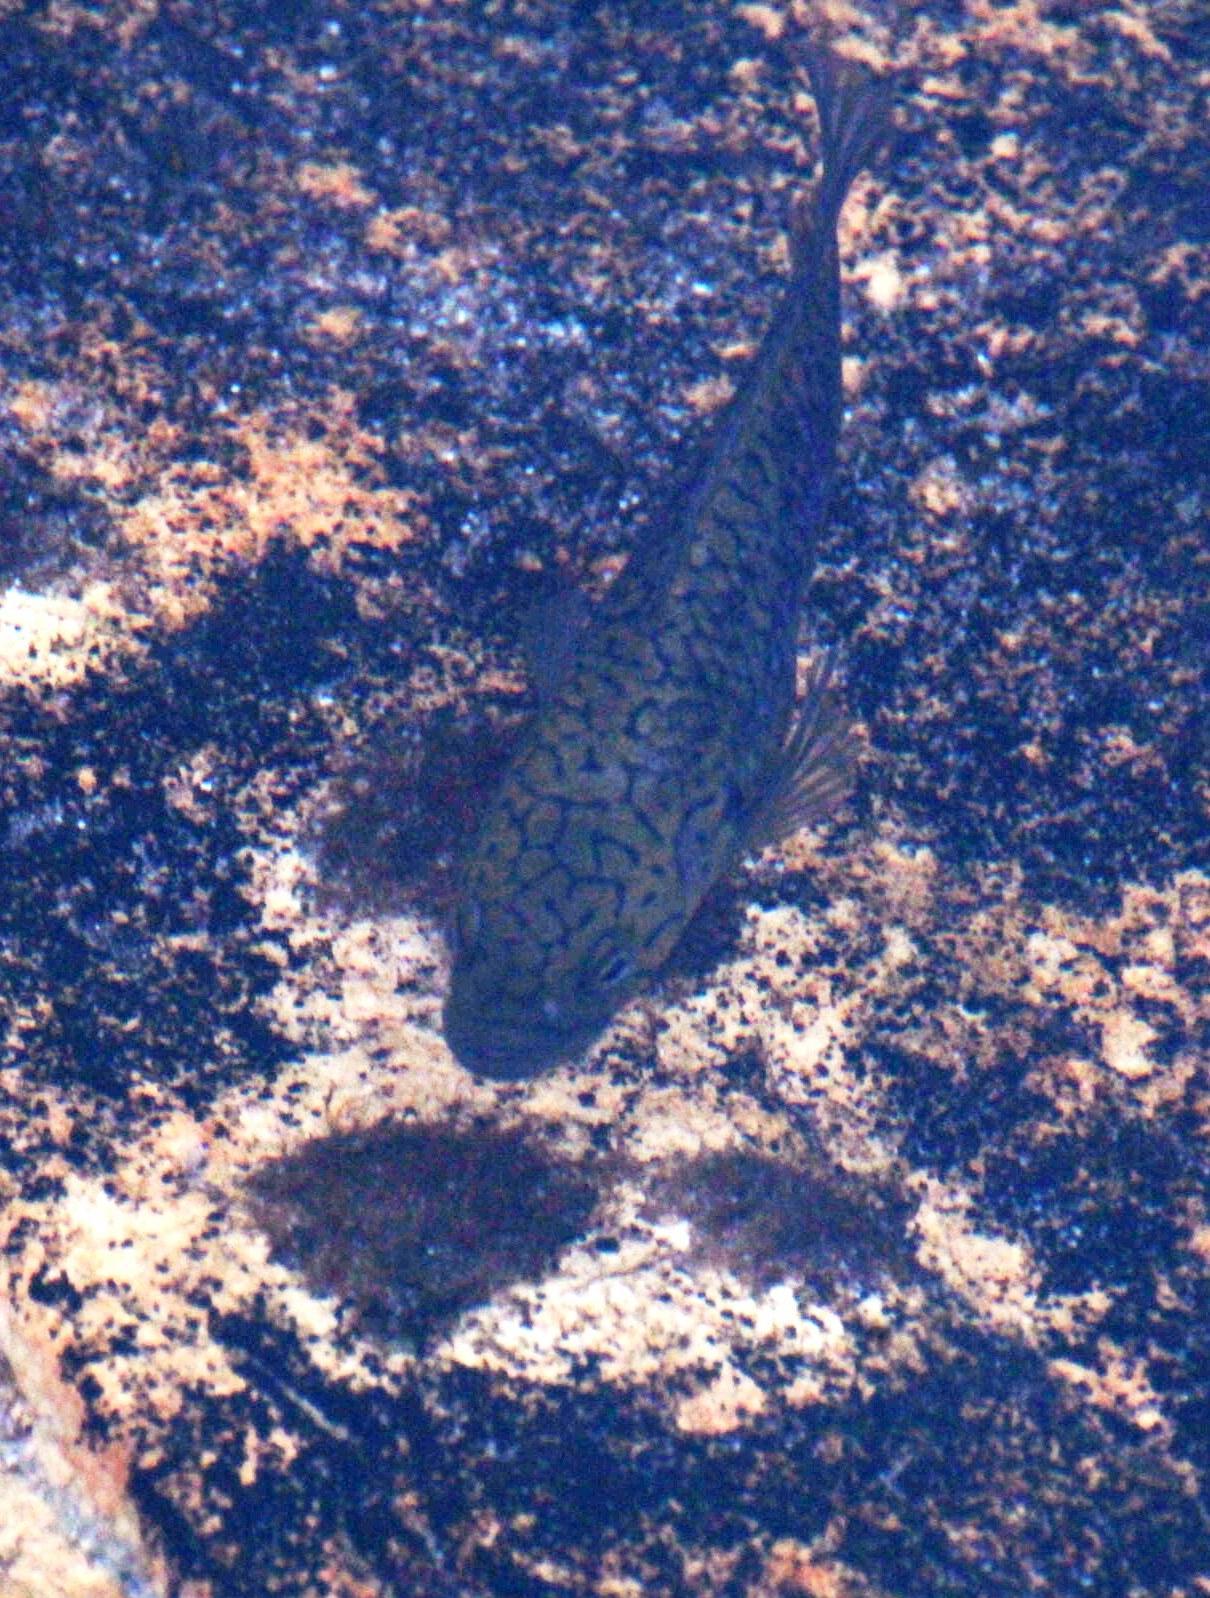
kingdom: Animalia
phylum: Chordata
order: Perciformes
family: Anabantidae
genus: Sandelia
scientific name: Sandelia capensis
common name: Cape kurper
